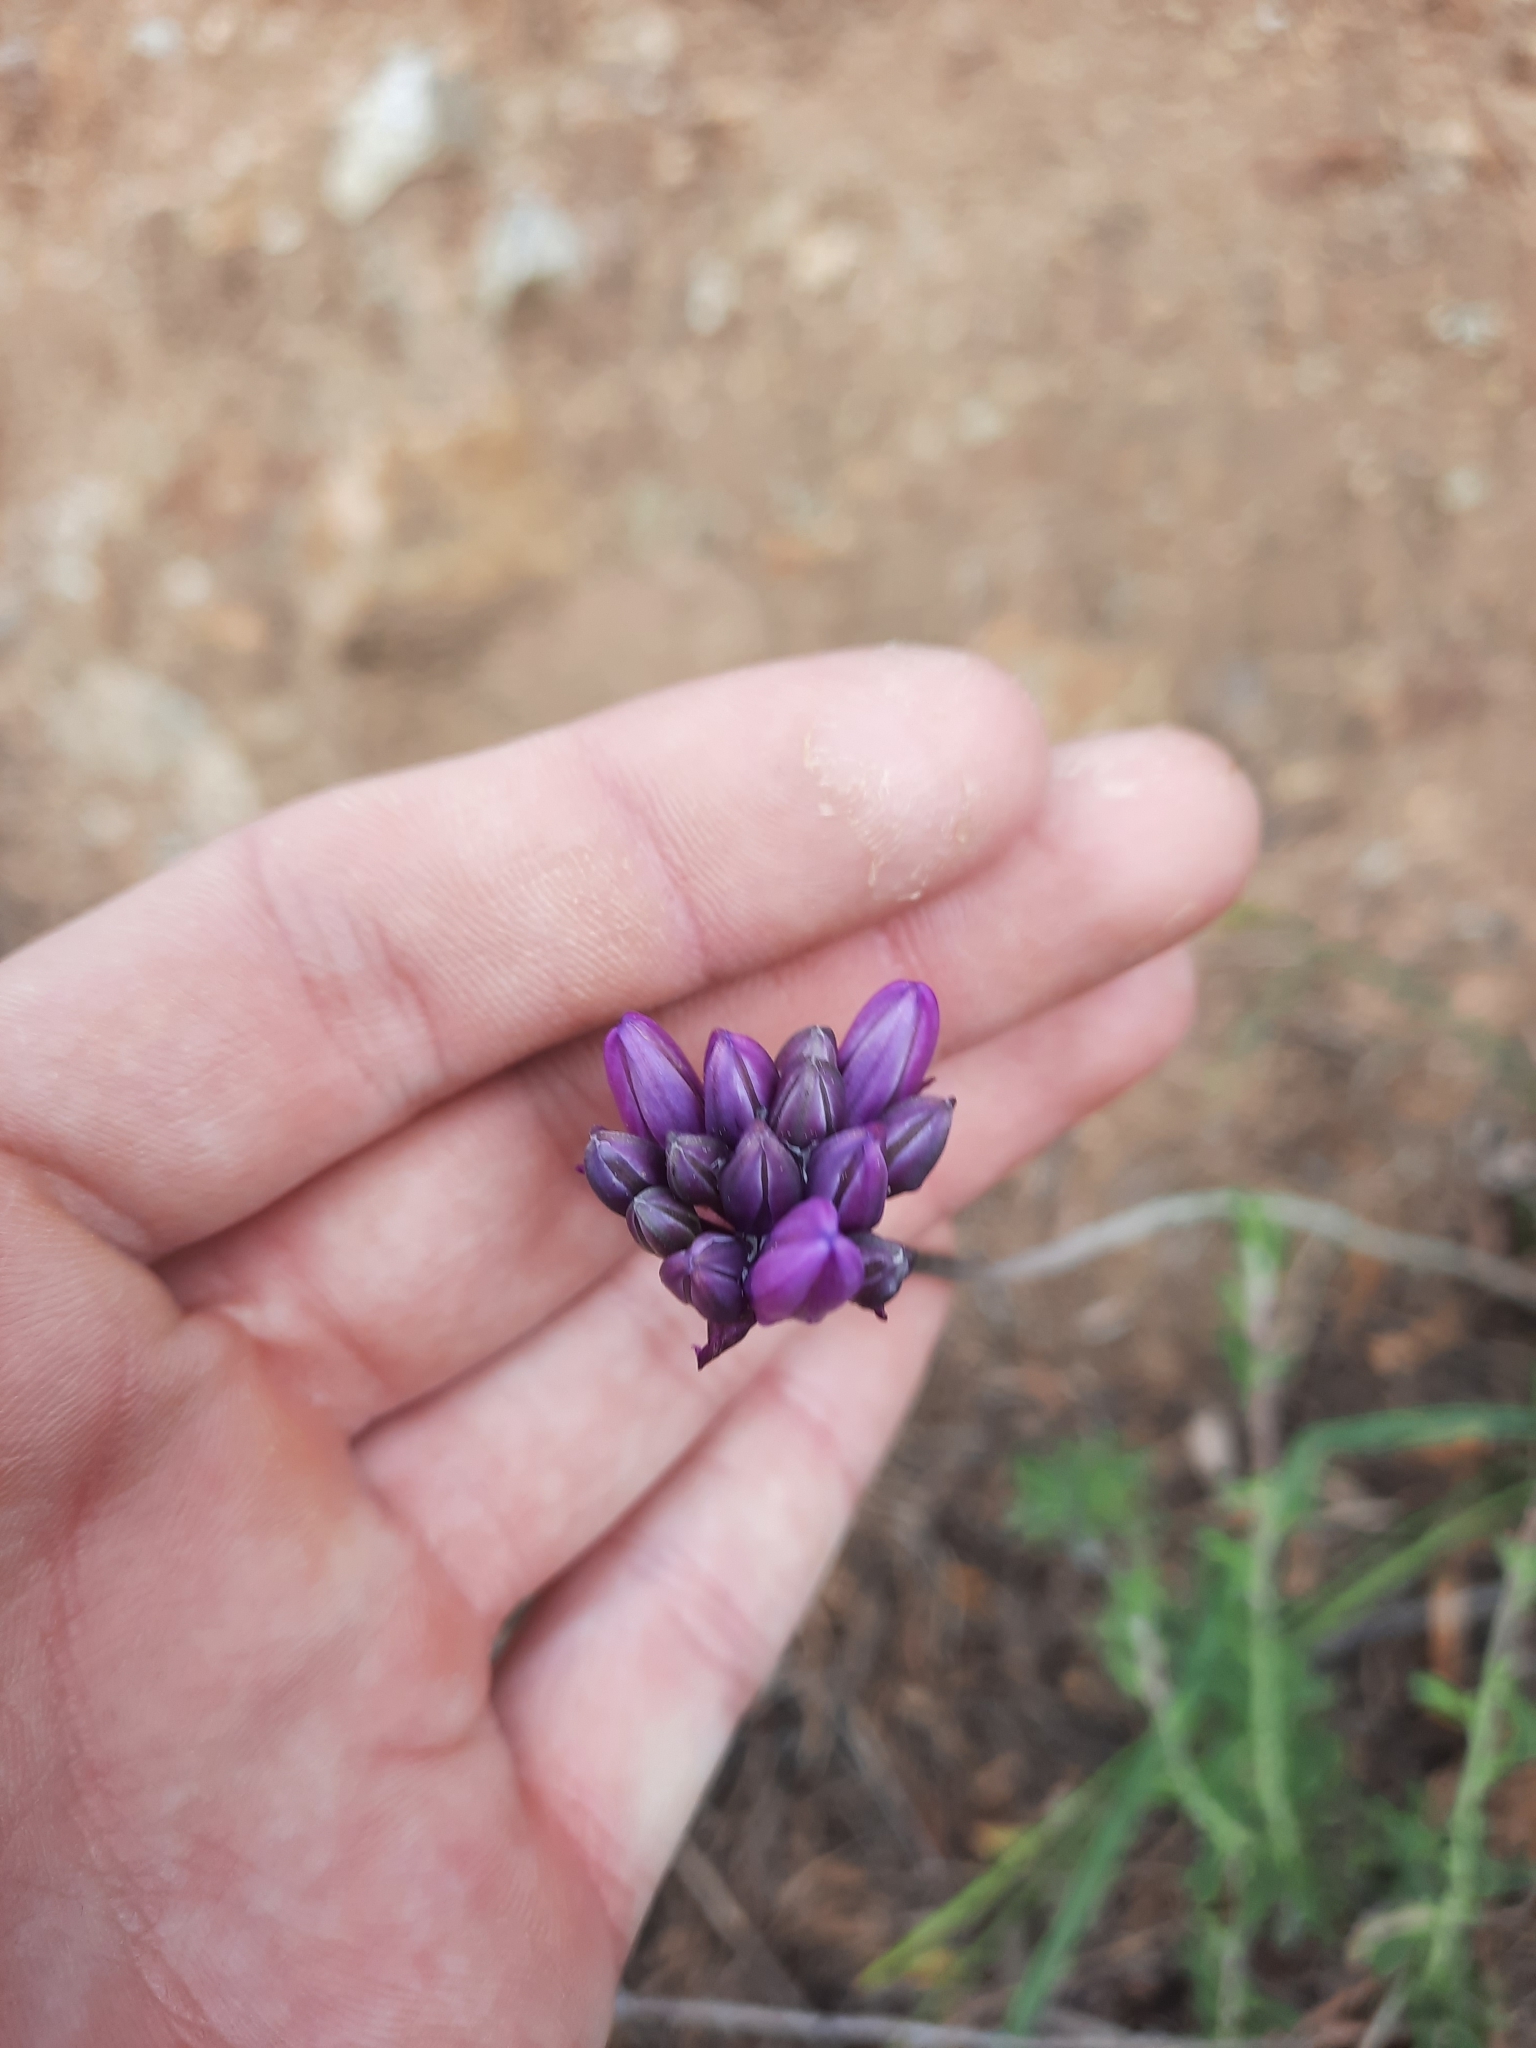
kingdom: Plantae
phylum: Tracheophyta
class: Liliopsida
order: Asparagales
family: Asparagaceae
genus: Dipterostemon
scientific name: Dipterostemon capitatus
